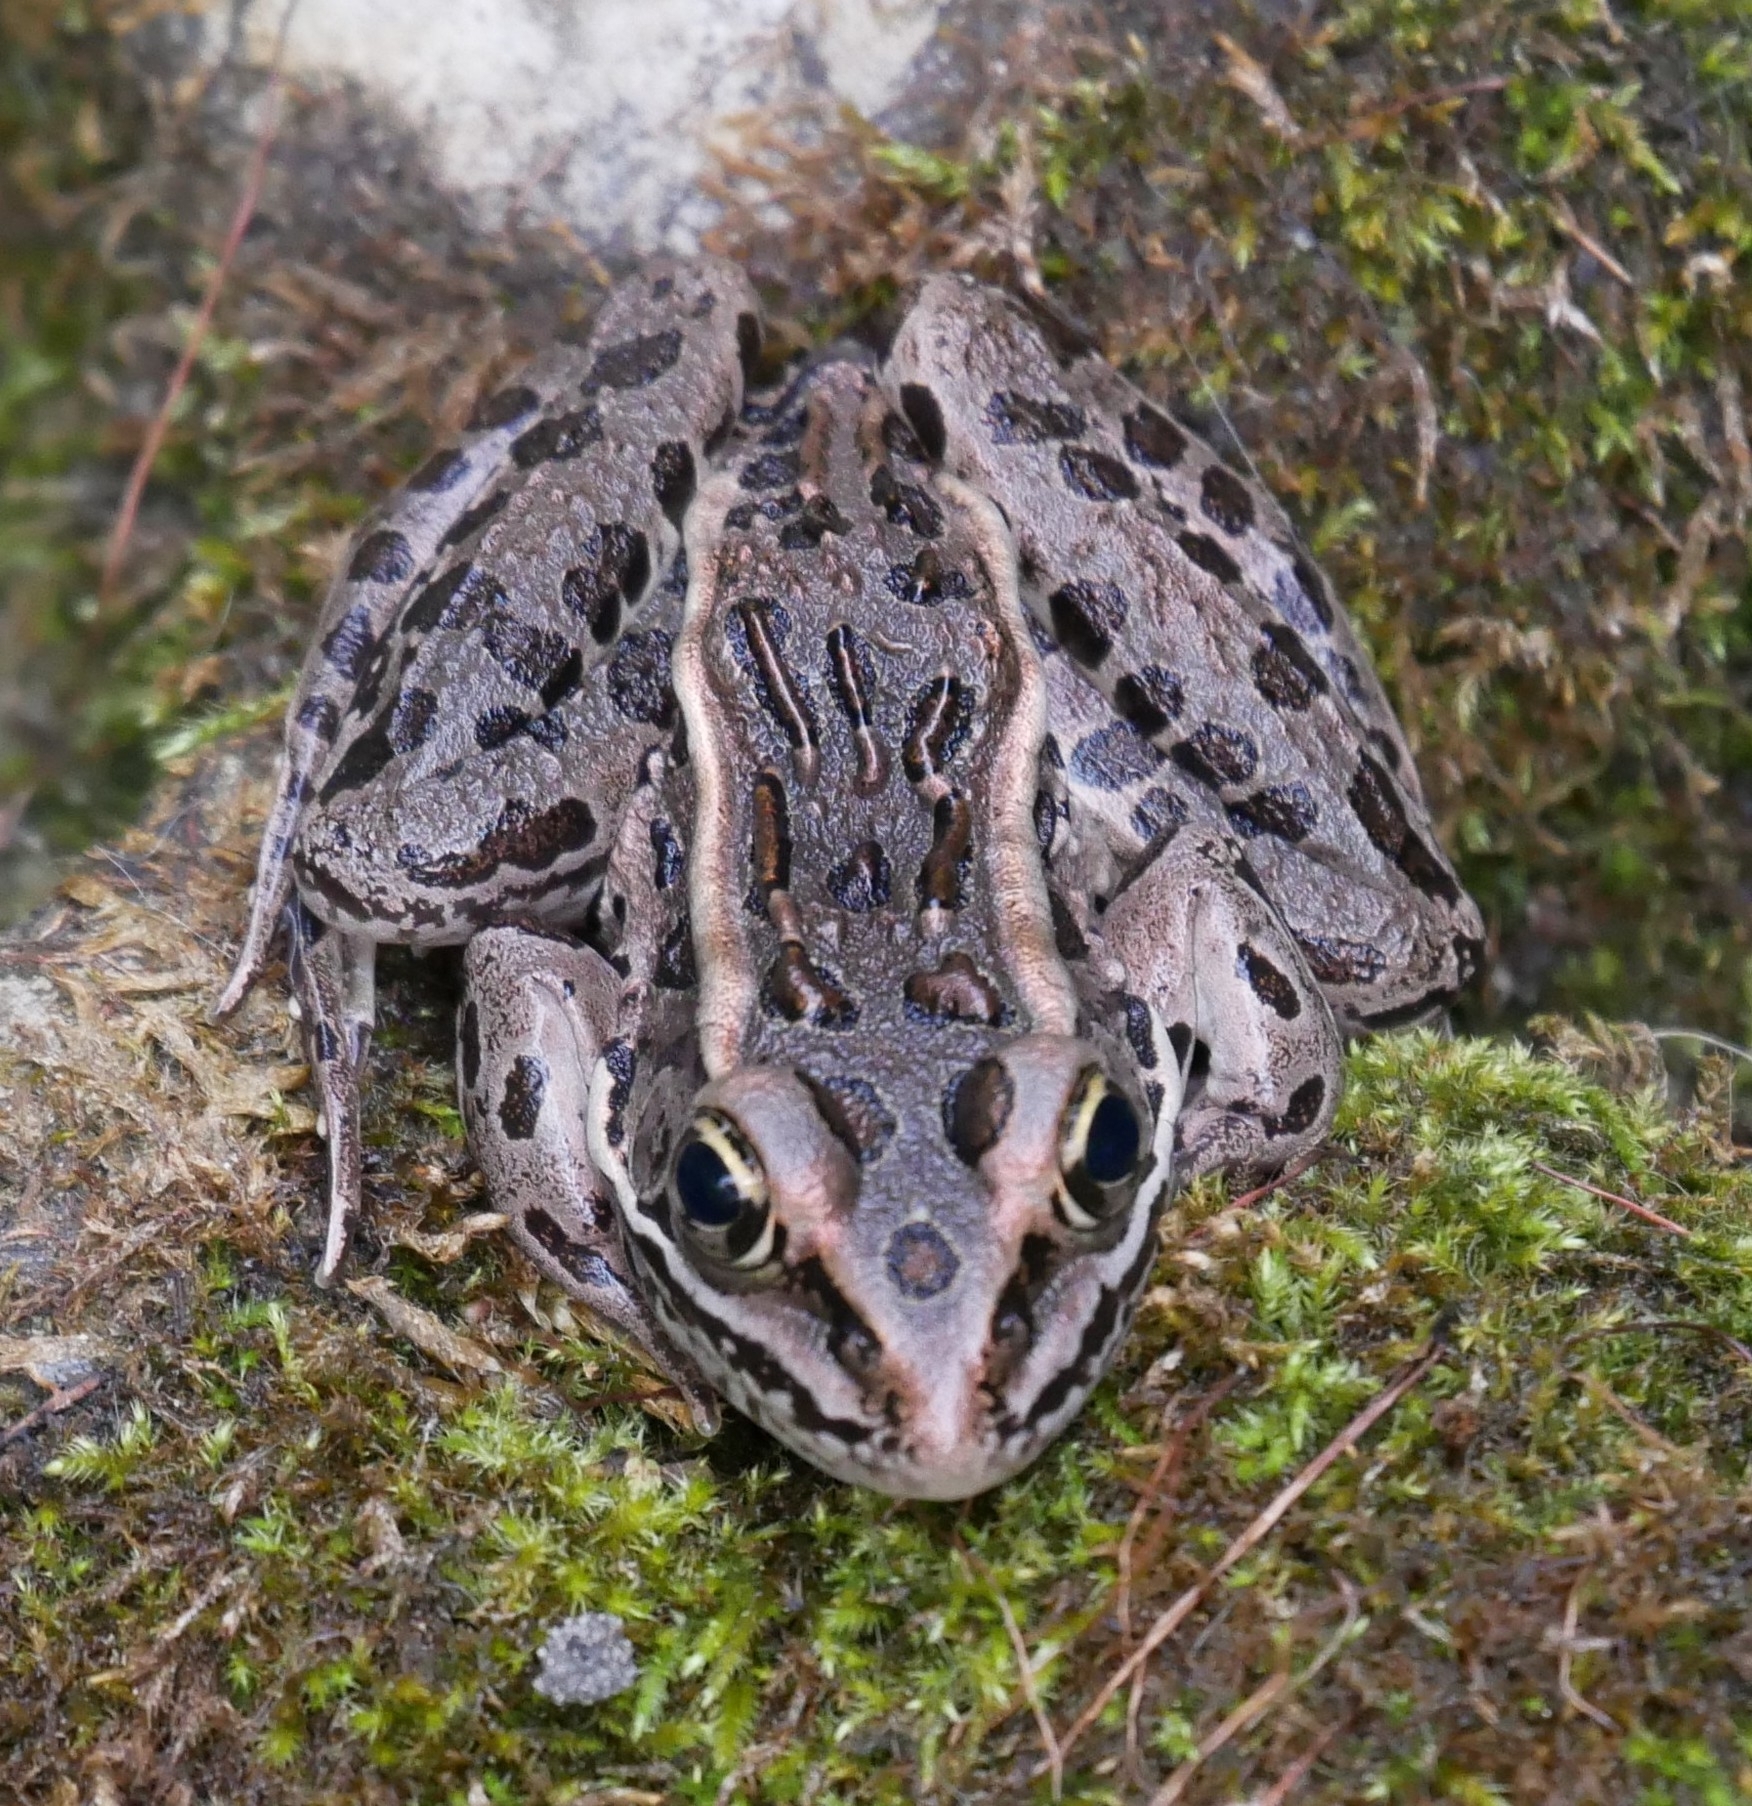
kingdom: Animalia
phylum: Chordata
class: Amphibia
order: Anura
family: Ranidae
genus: Lithobates
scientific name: Lithobates pipiens
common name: Northern leopard frog
